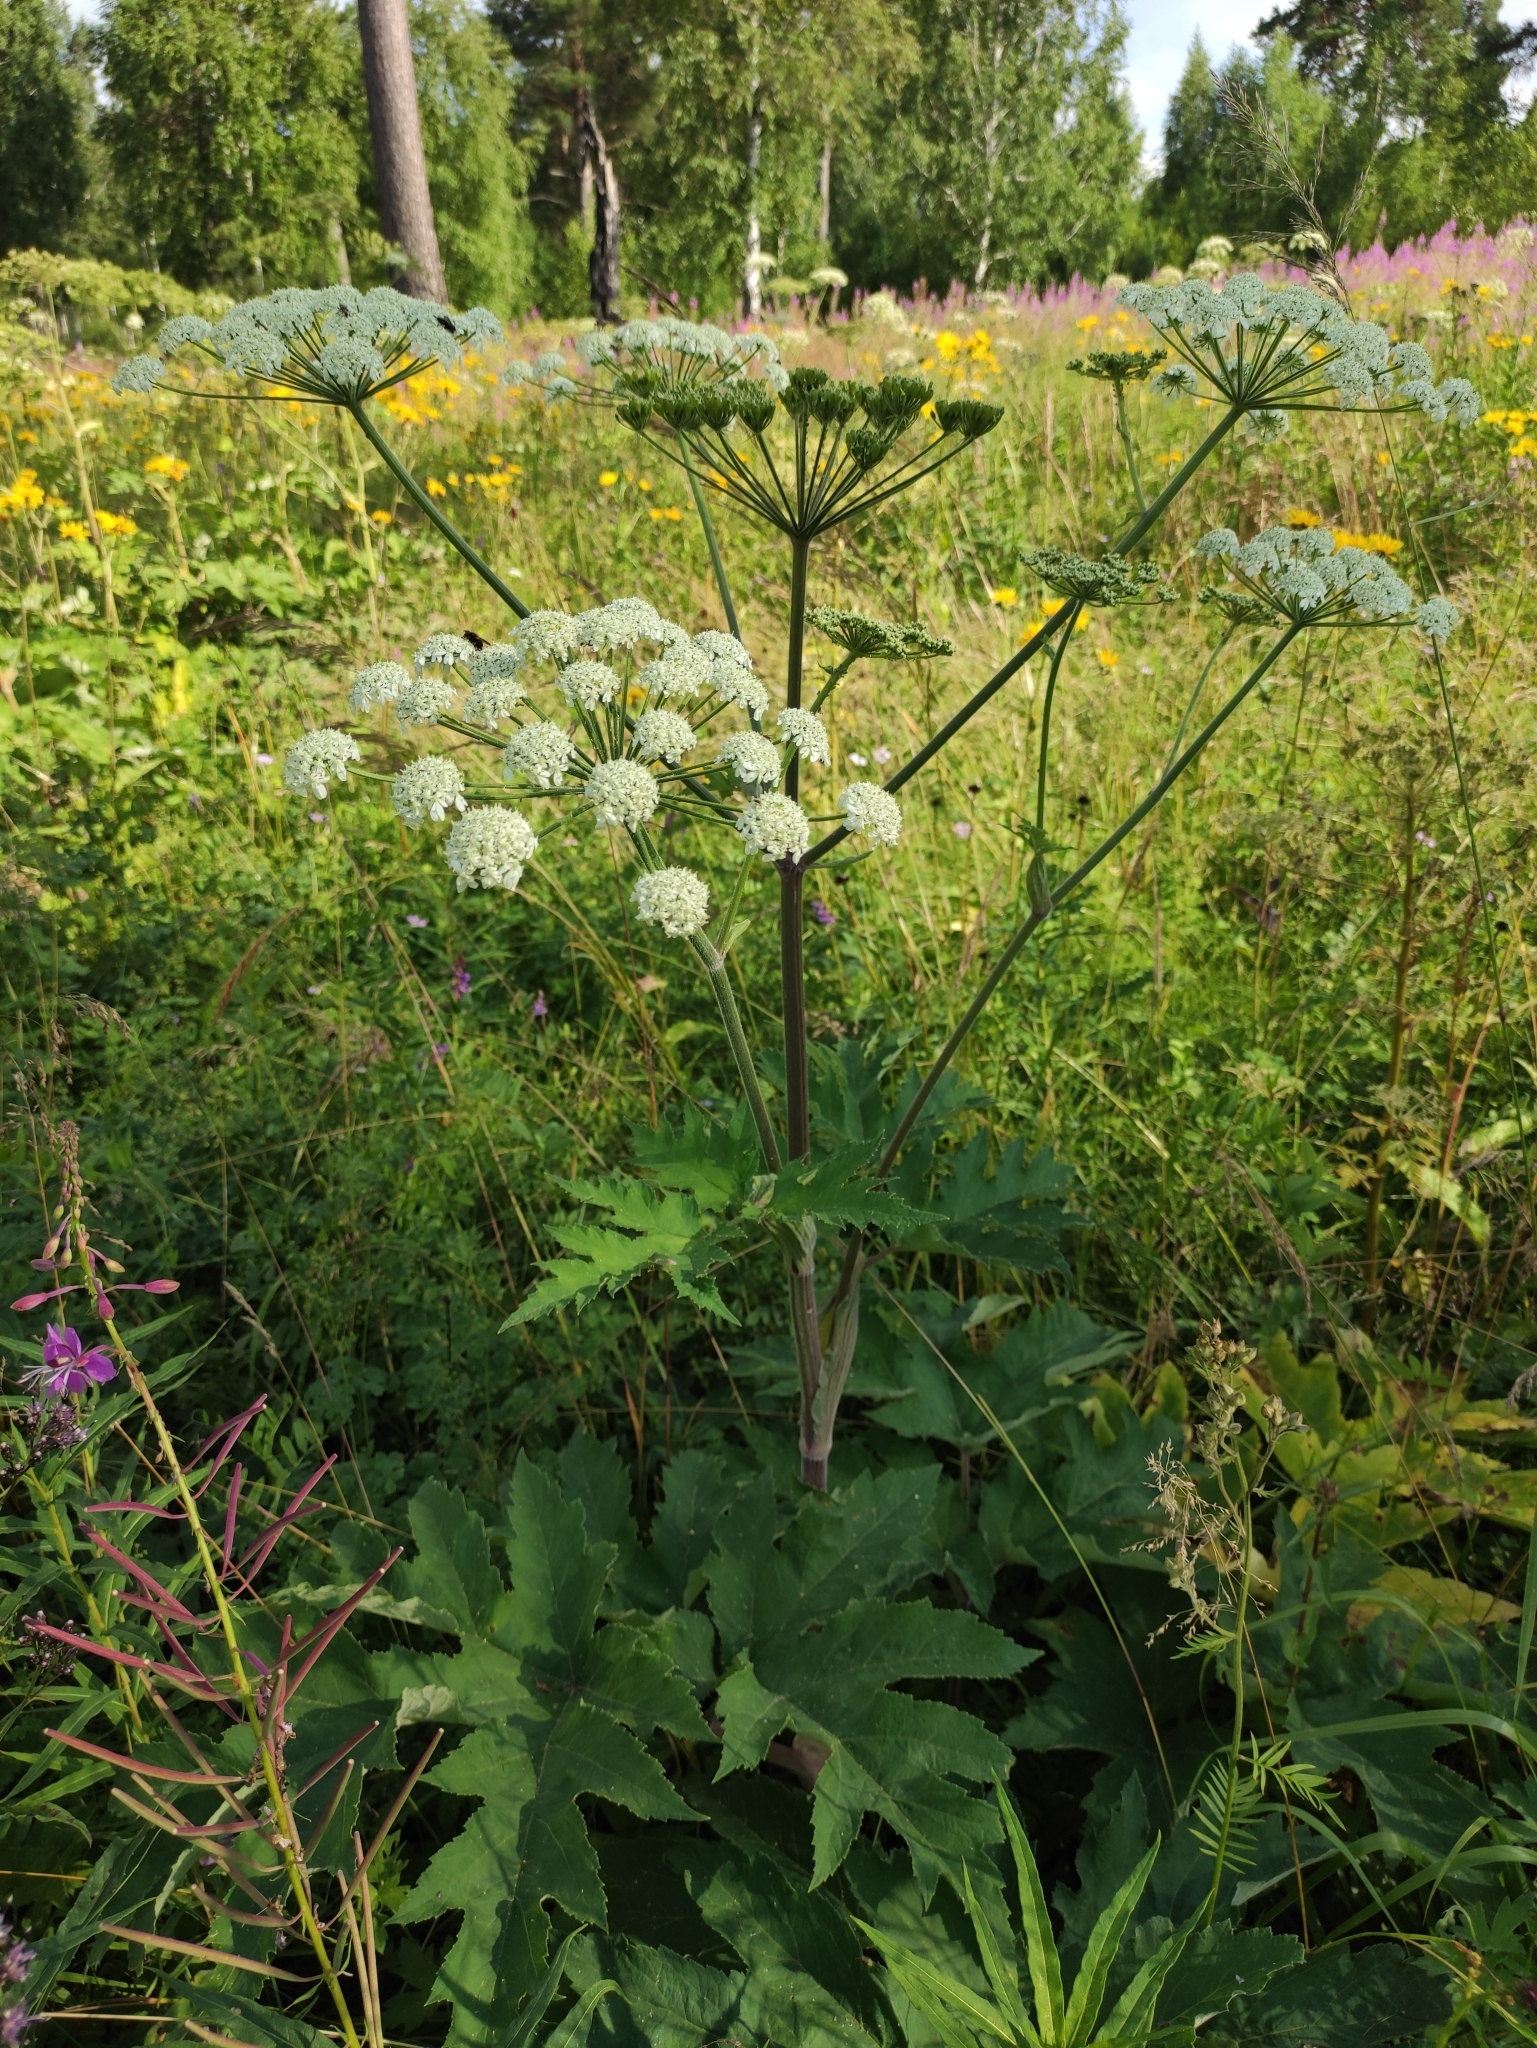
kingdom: Plantae
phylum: Tracheophyta
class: Magnoliopsida
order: Apiales
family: Apiaceae
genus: Heracleum
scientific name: Heracleum dissectum
